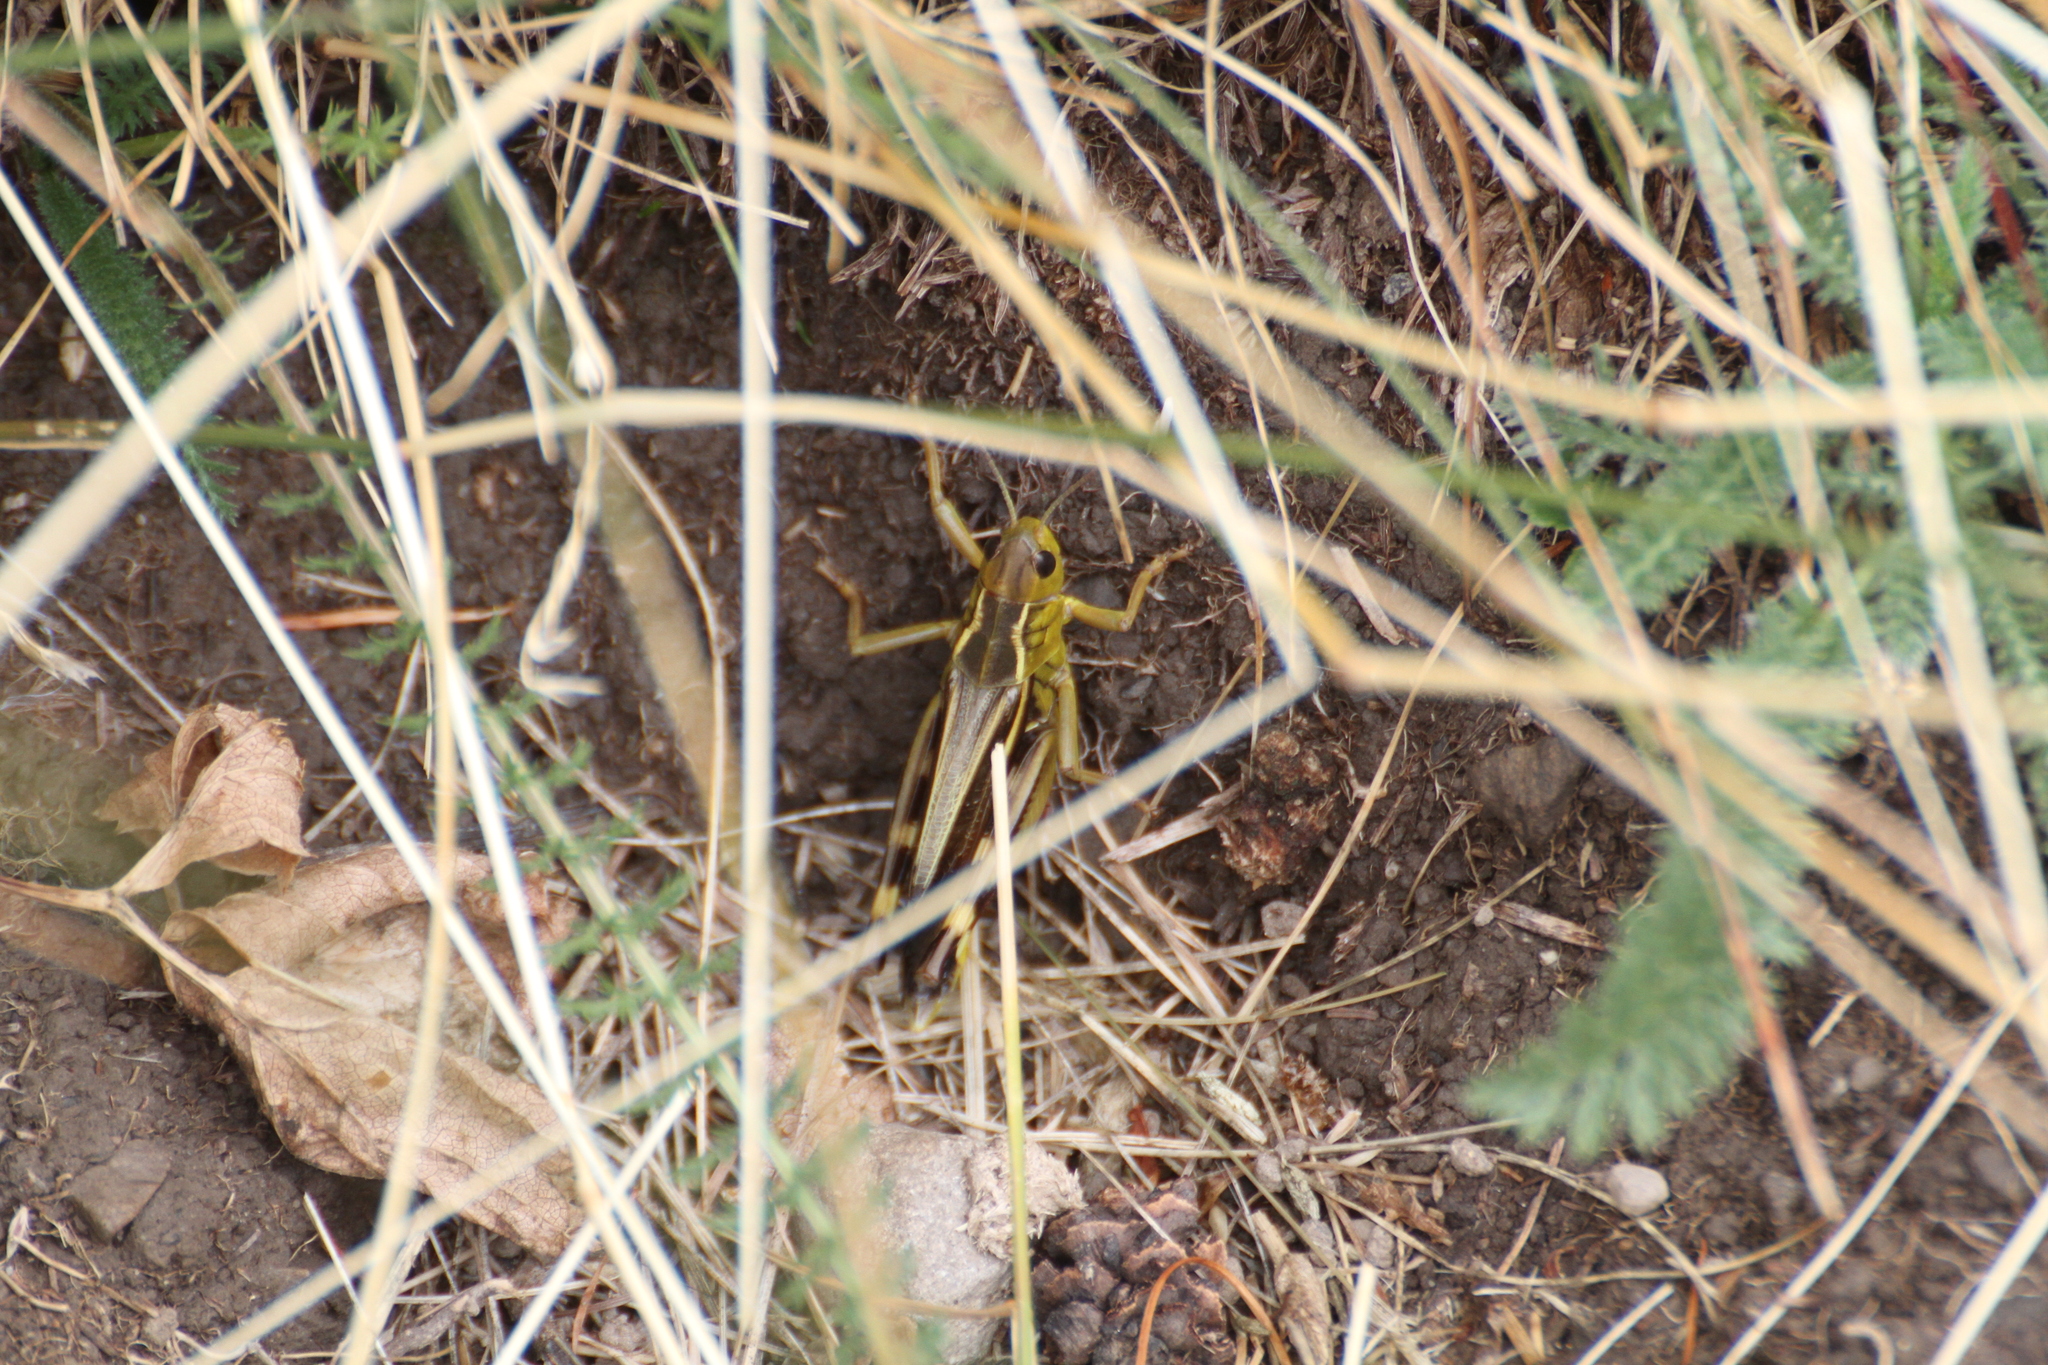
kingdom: Animalia
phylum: Arthropoda
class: Insecta
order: Orthoptera
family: Acrididae
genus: Arcyptera
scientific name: Arcyptera fusca
